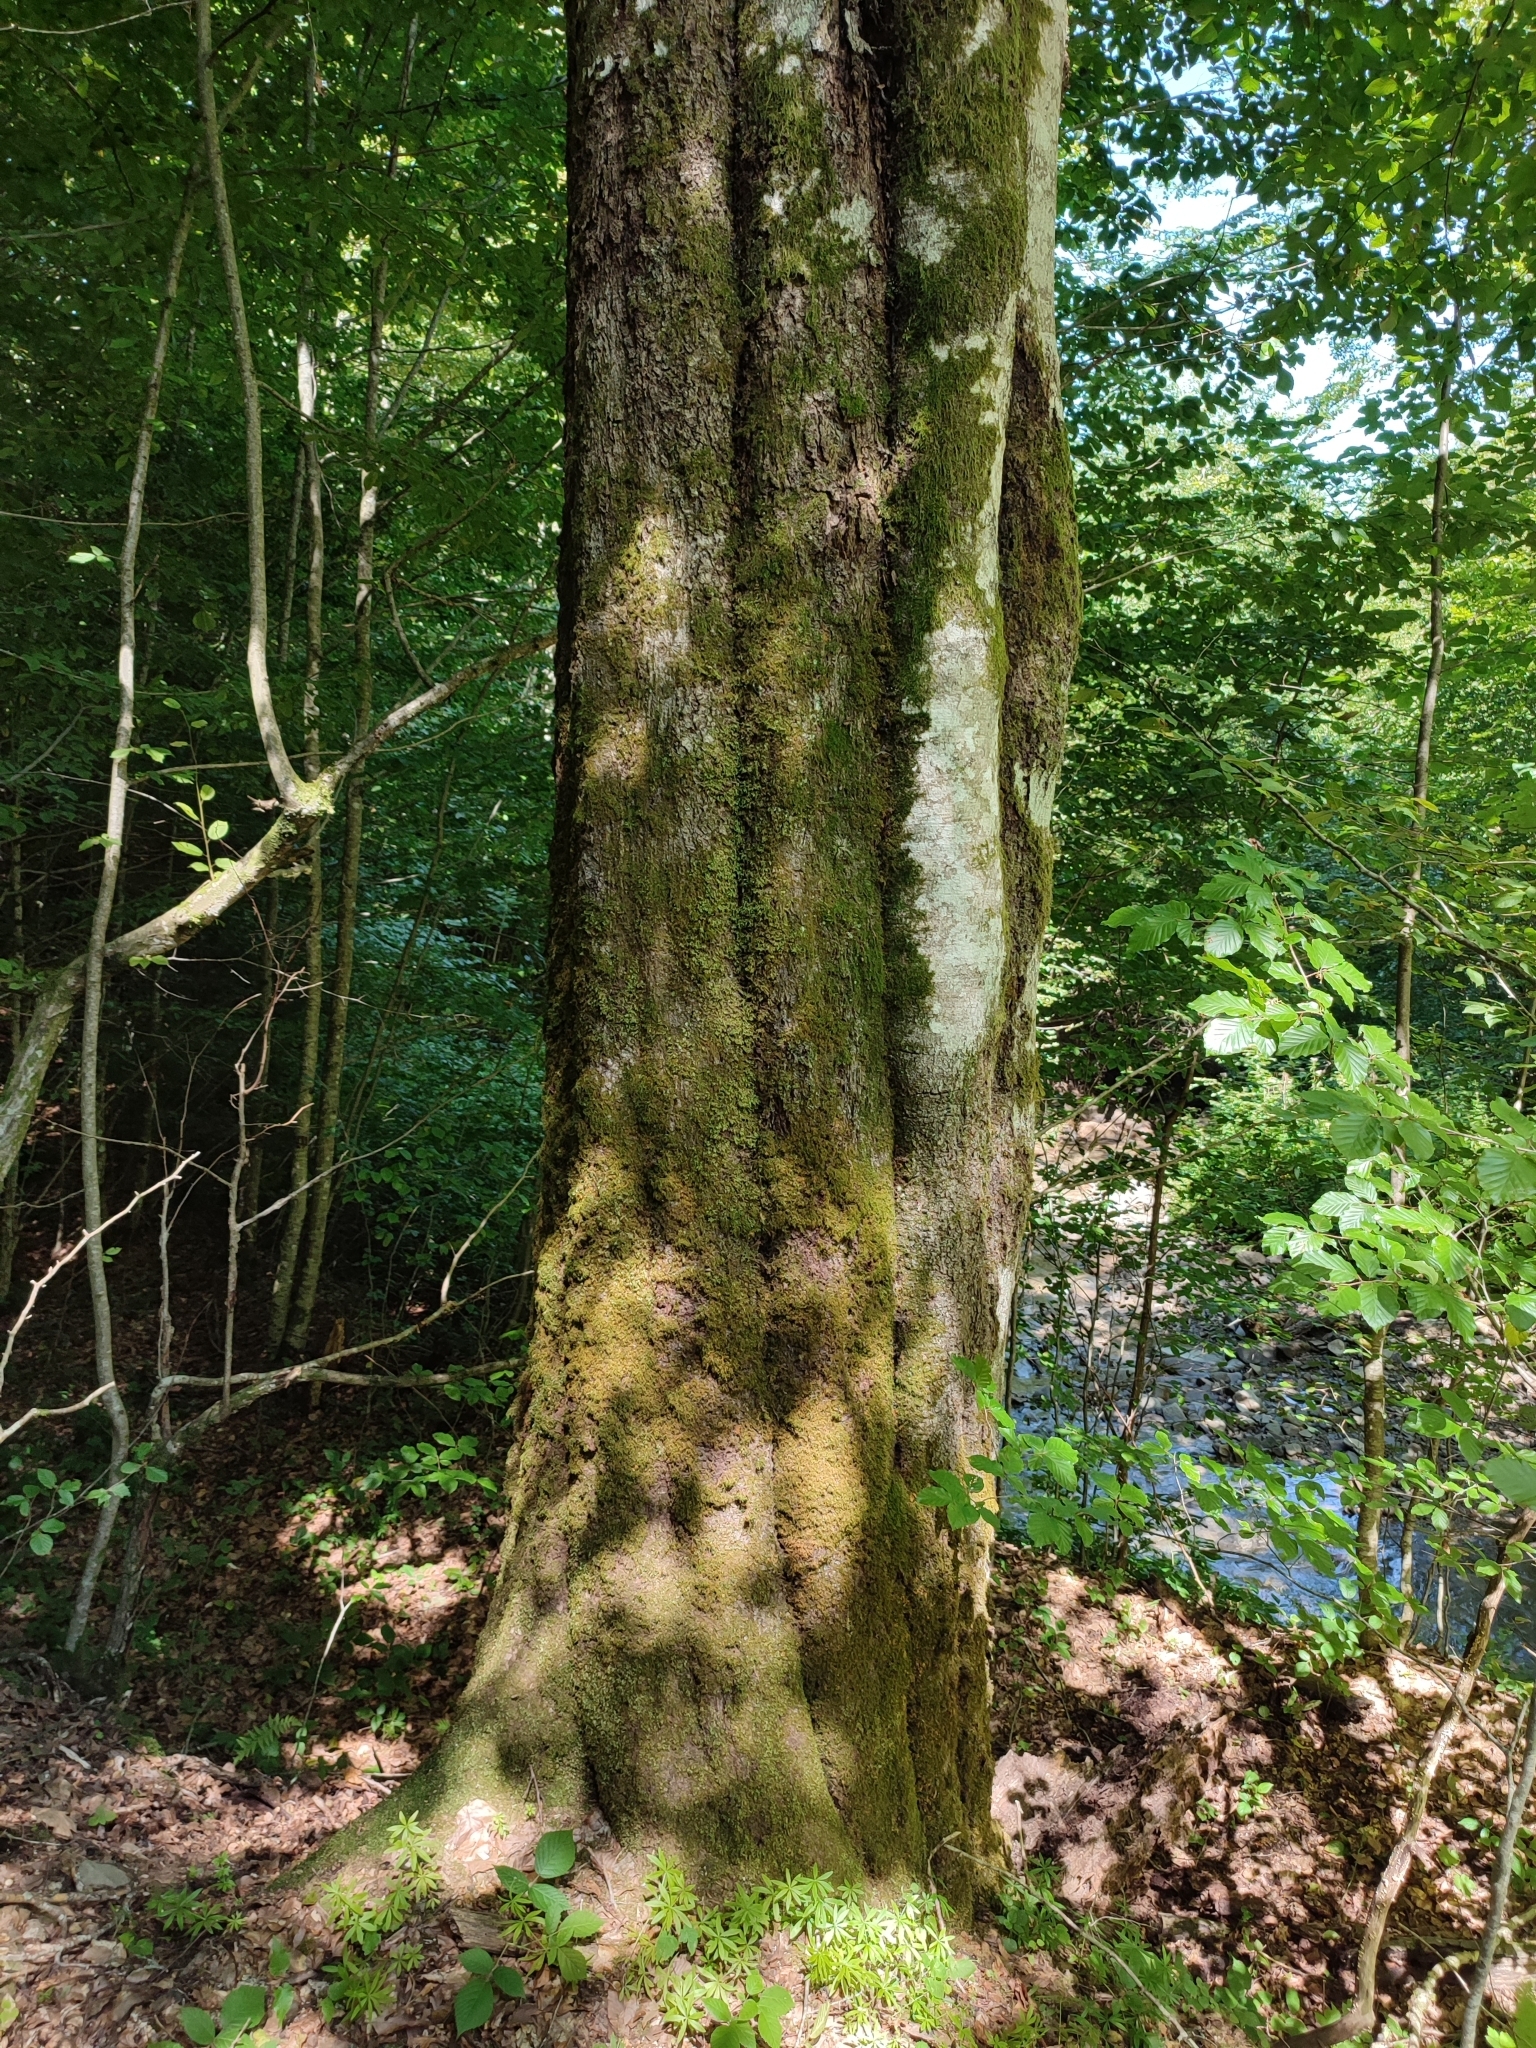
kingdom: Plantae
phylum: Tracheophyta
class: Magnoliopsida
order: Fagales
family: Fagaceae
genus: Fagus
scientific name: Fagus sylvatica
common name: Beech
